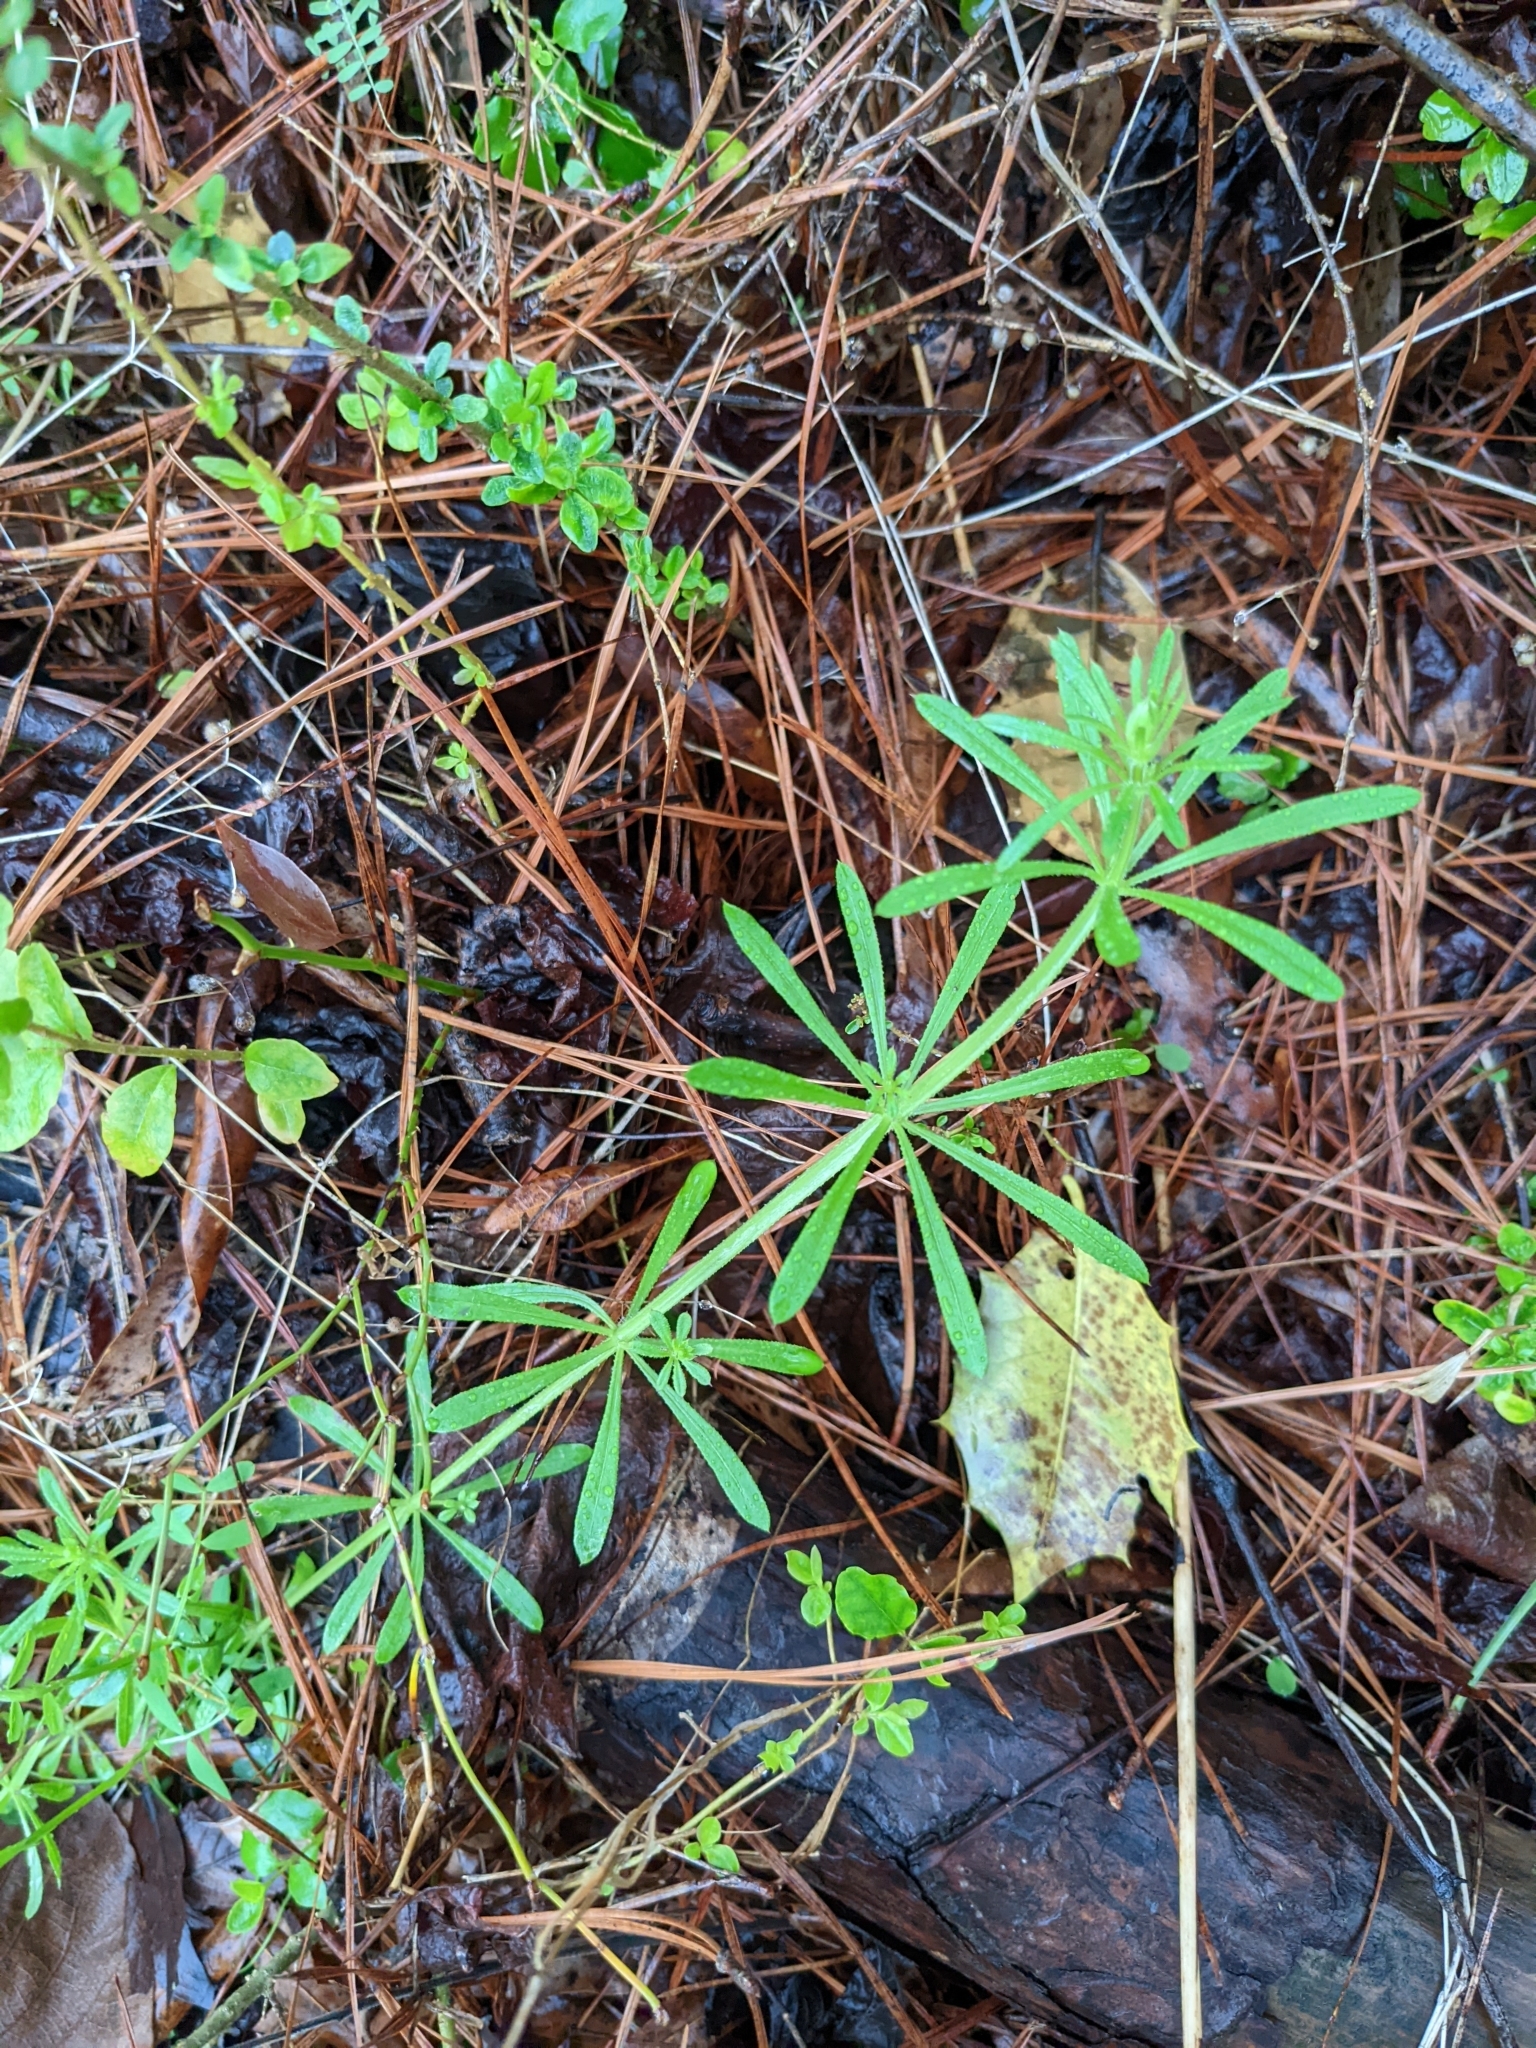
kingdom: Plantae
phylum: Tracheophyta
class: Magnoliopsida
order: Gentianales
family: Rubiaceae
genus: Galium
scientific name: Galium aparine
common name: Cleavers
